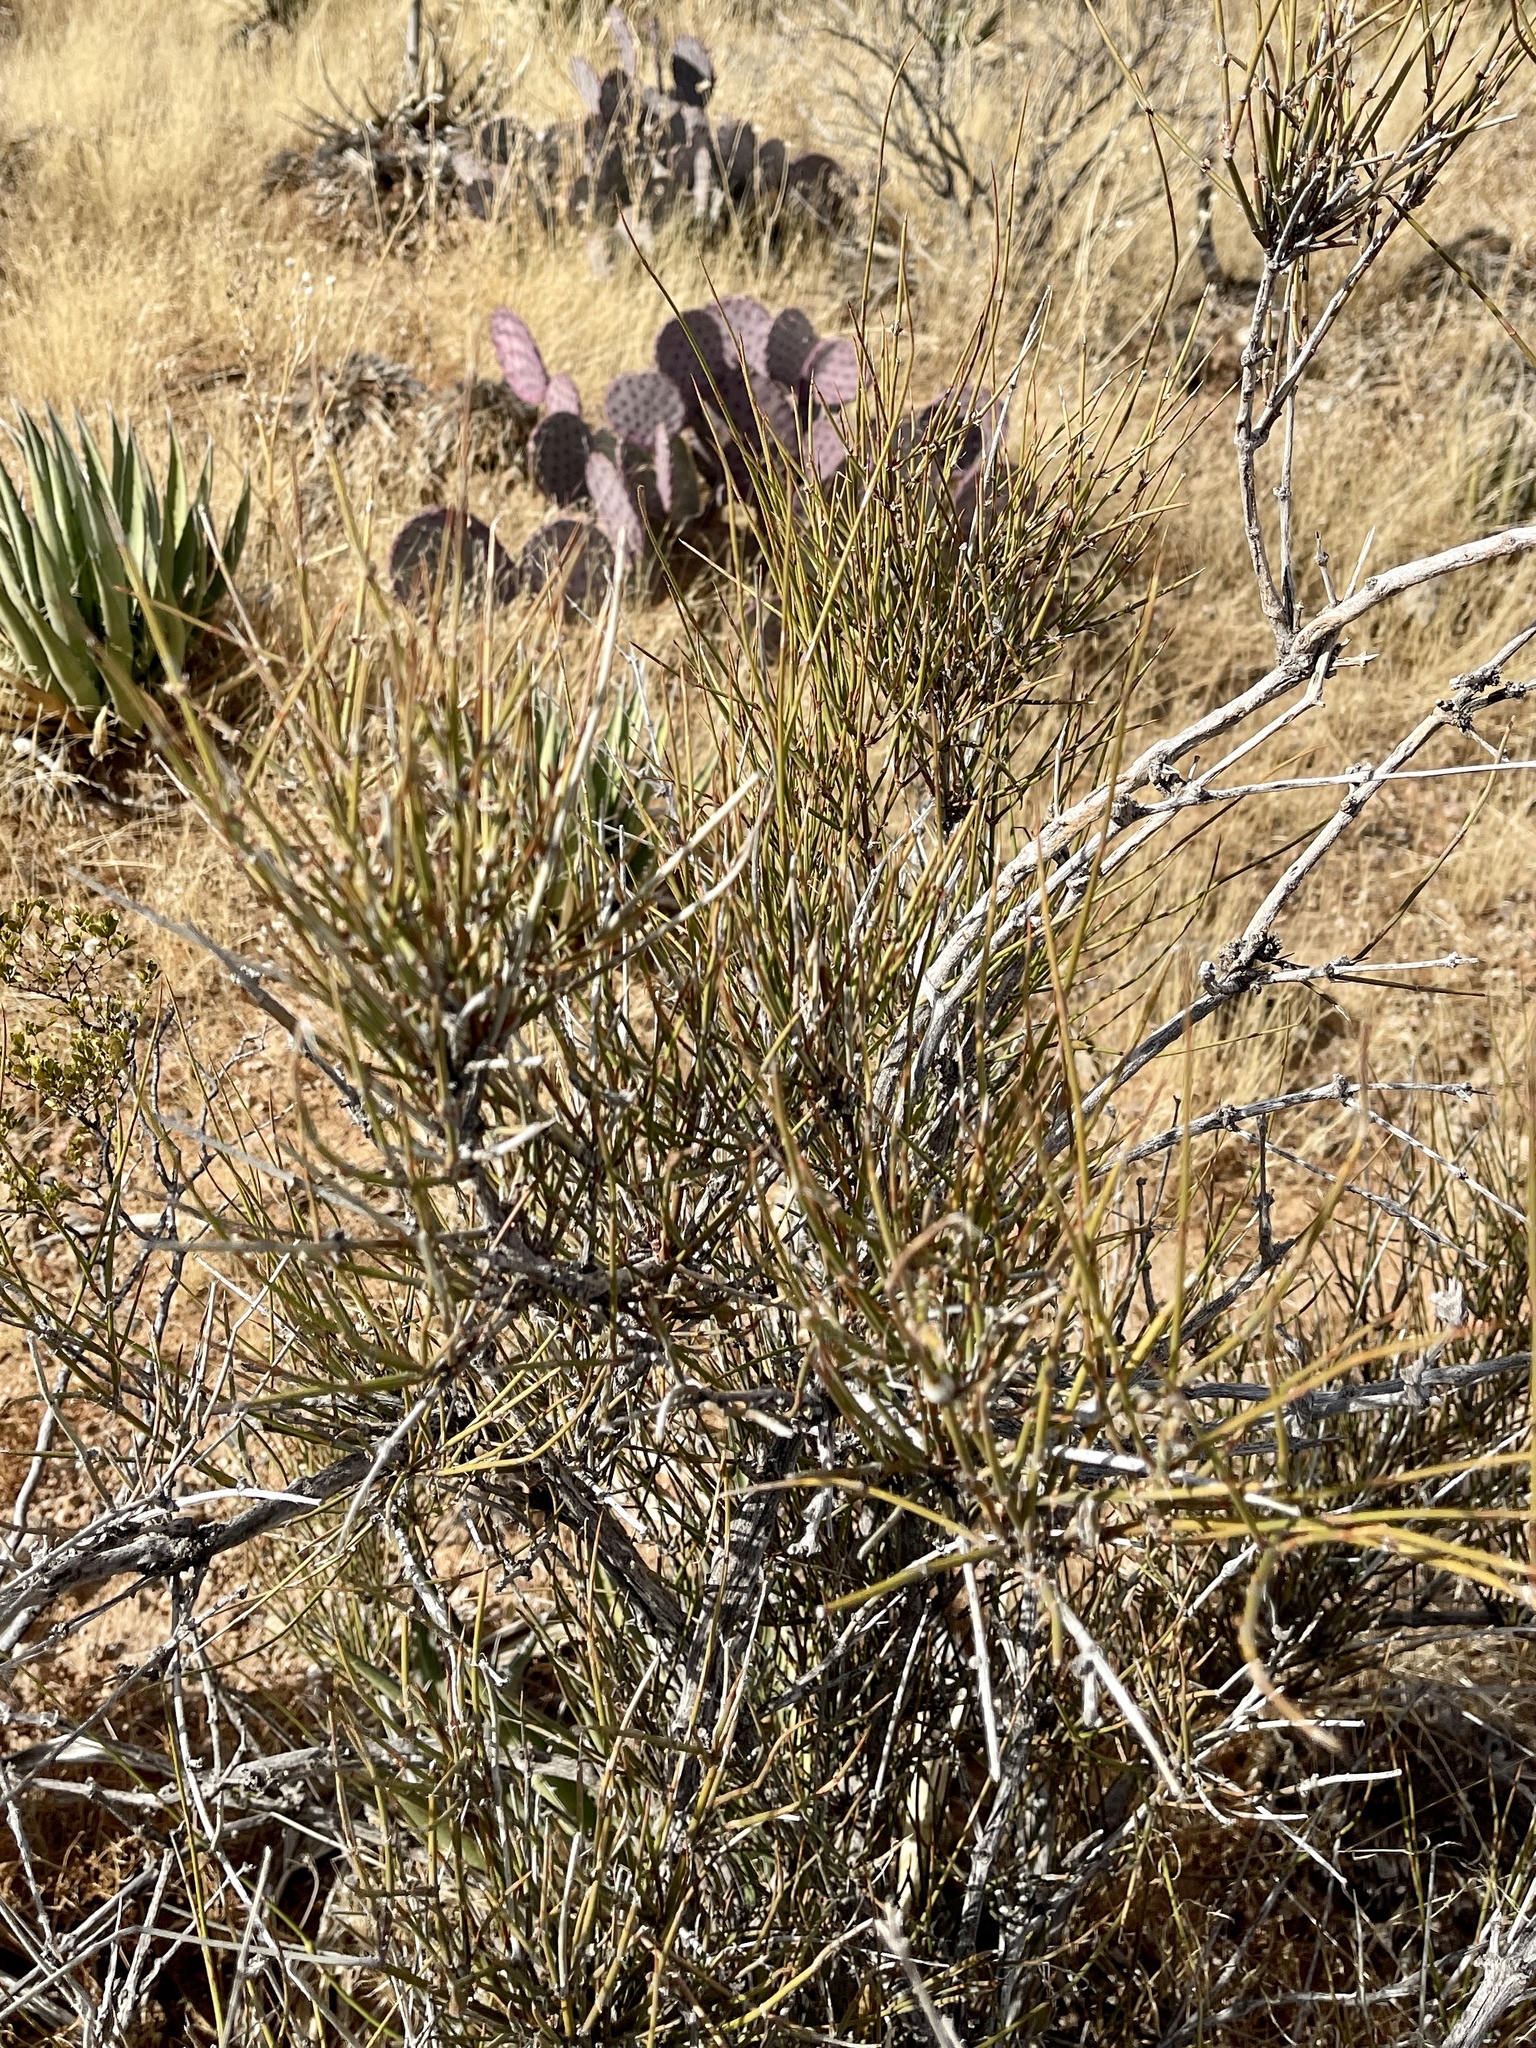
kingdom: Plantae
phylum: Tracheophyta
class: Gnetopsida
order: Ephedrales
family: Ephedraceae
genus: Ephedra
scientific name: Ephedra trifurca
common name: Mexican-tea
